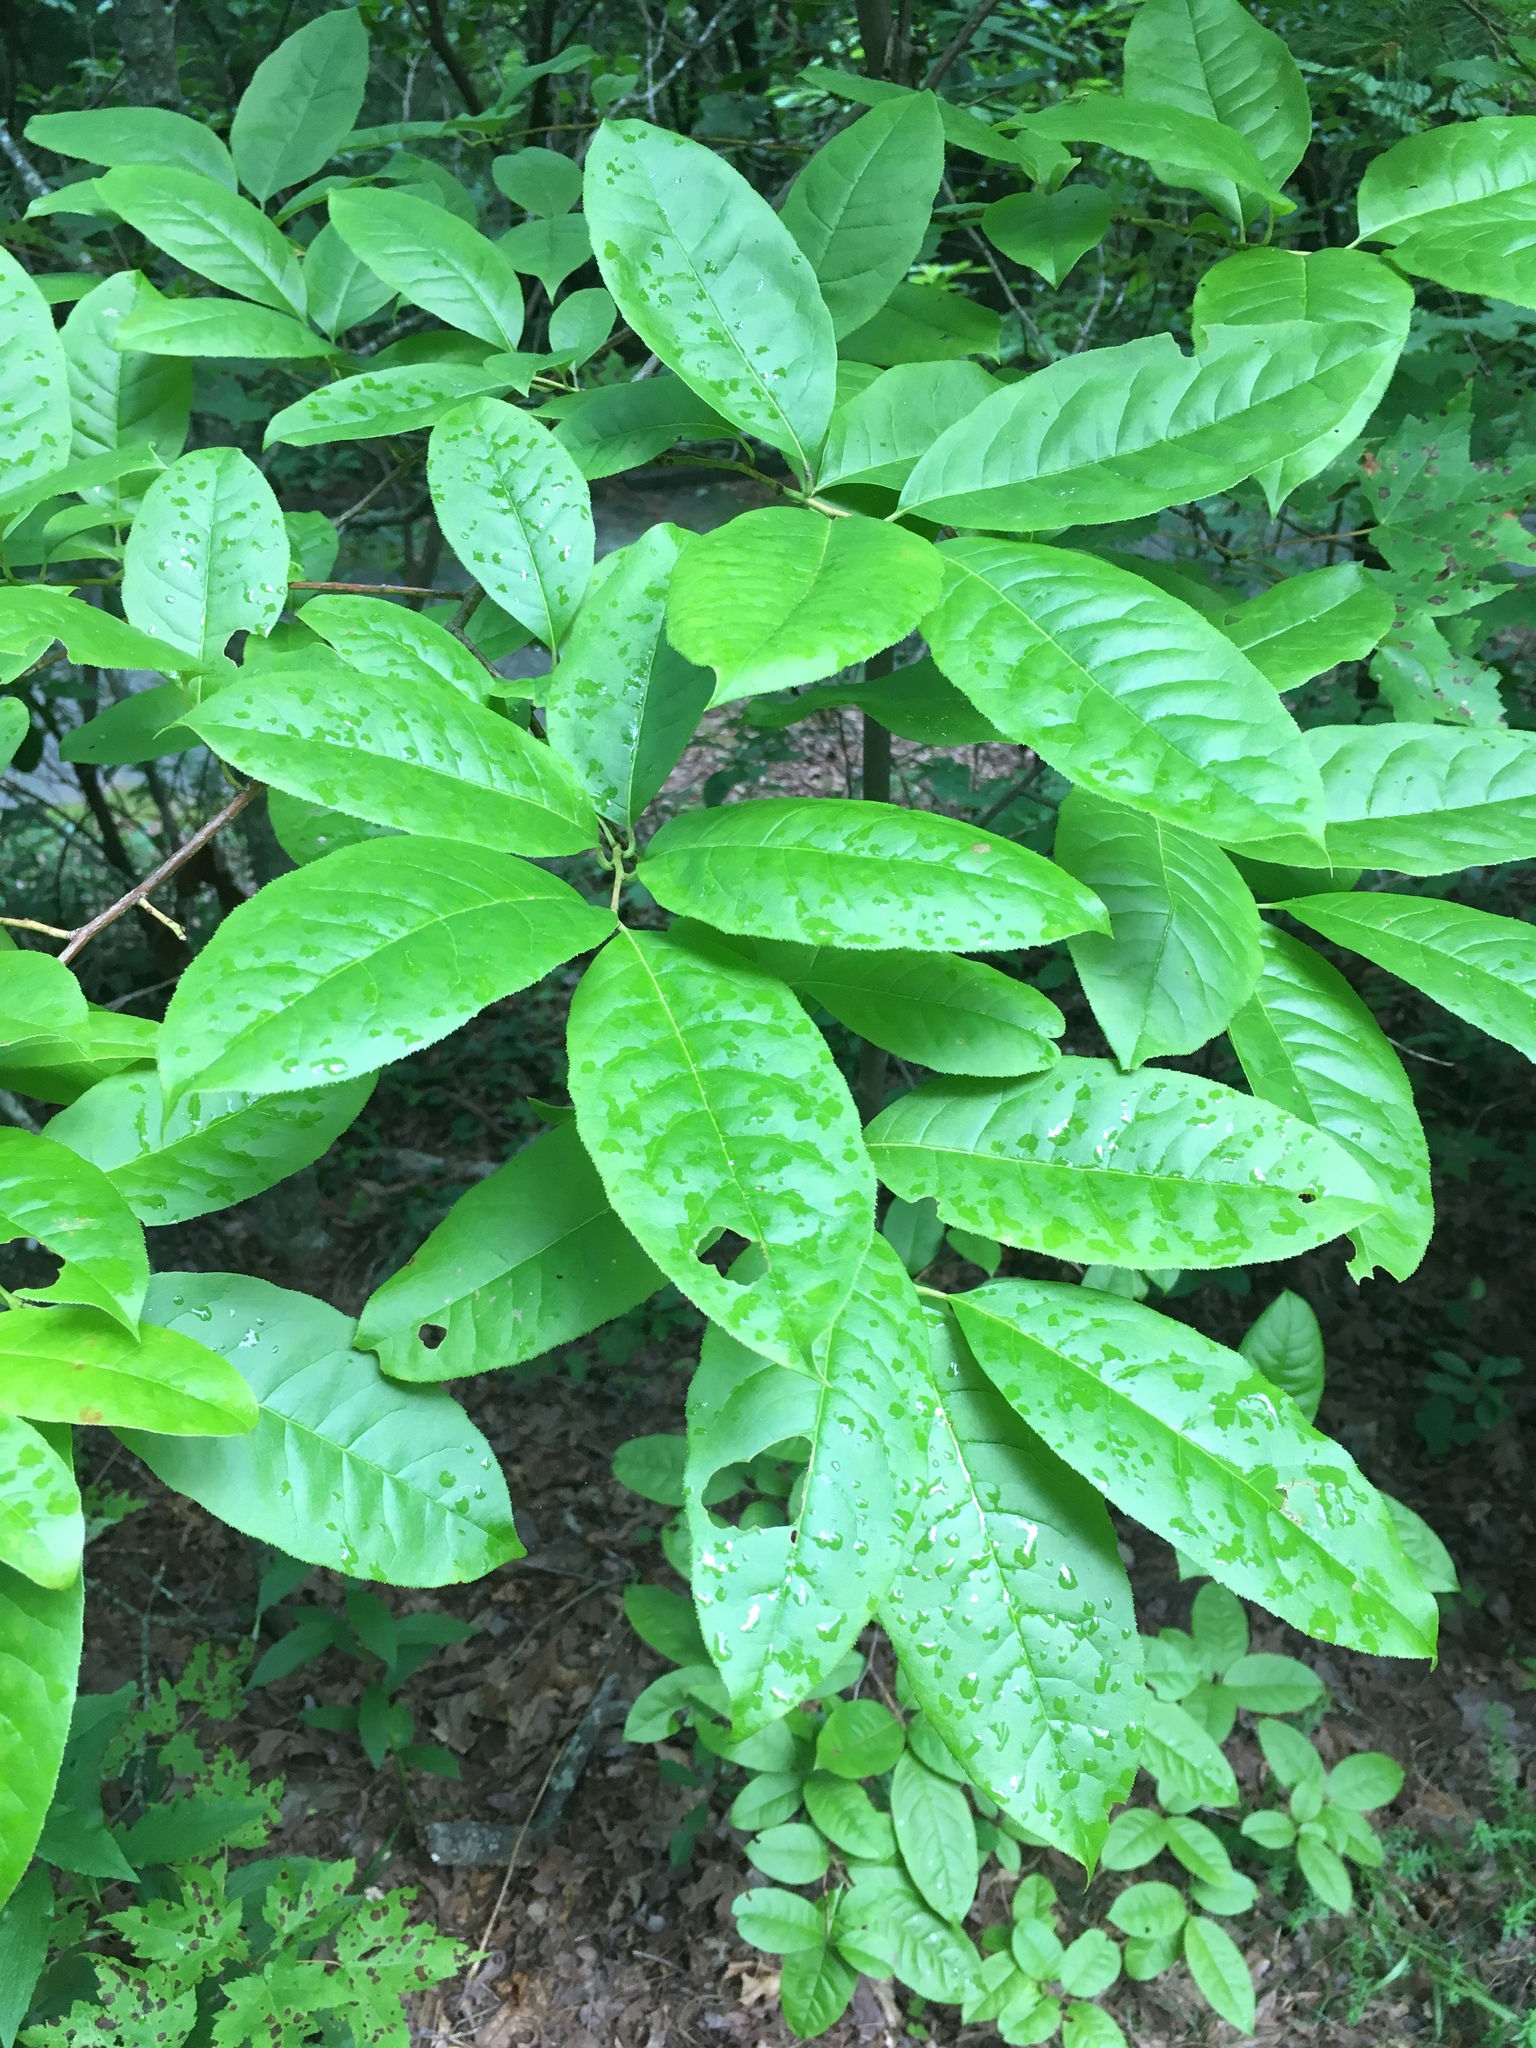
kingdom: Plantae
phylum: Tracheophyta
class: Magnoliopsida
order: Ericales
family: Ericaceae
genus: Oxydendrum
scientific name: Oxydendrum arboreum
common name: Sourwood
